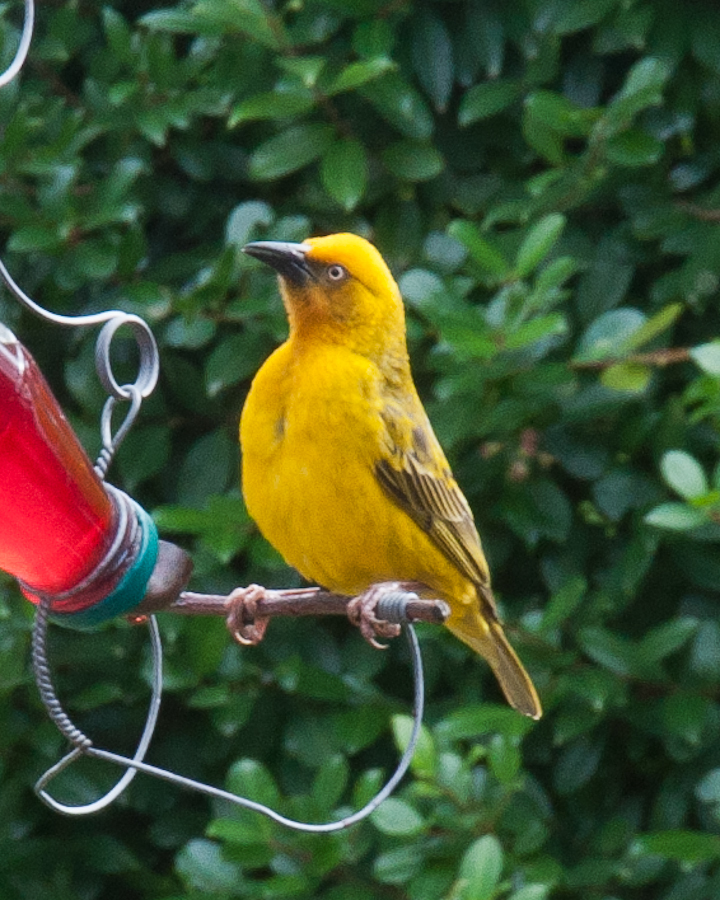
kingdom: Animalia
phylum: Chordata
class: Aves
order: Passeriformes
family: Ploceidae
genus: Ploceus
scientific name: Ploceus capensis
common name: Cape weaver
